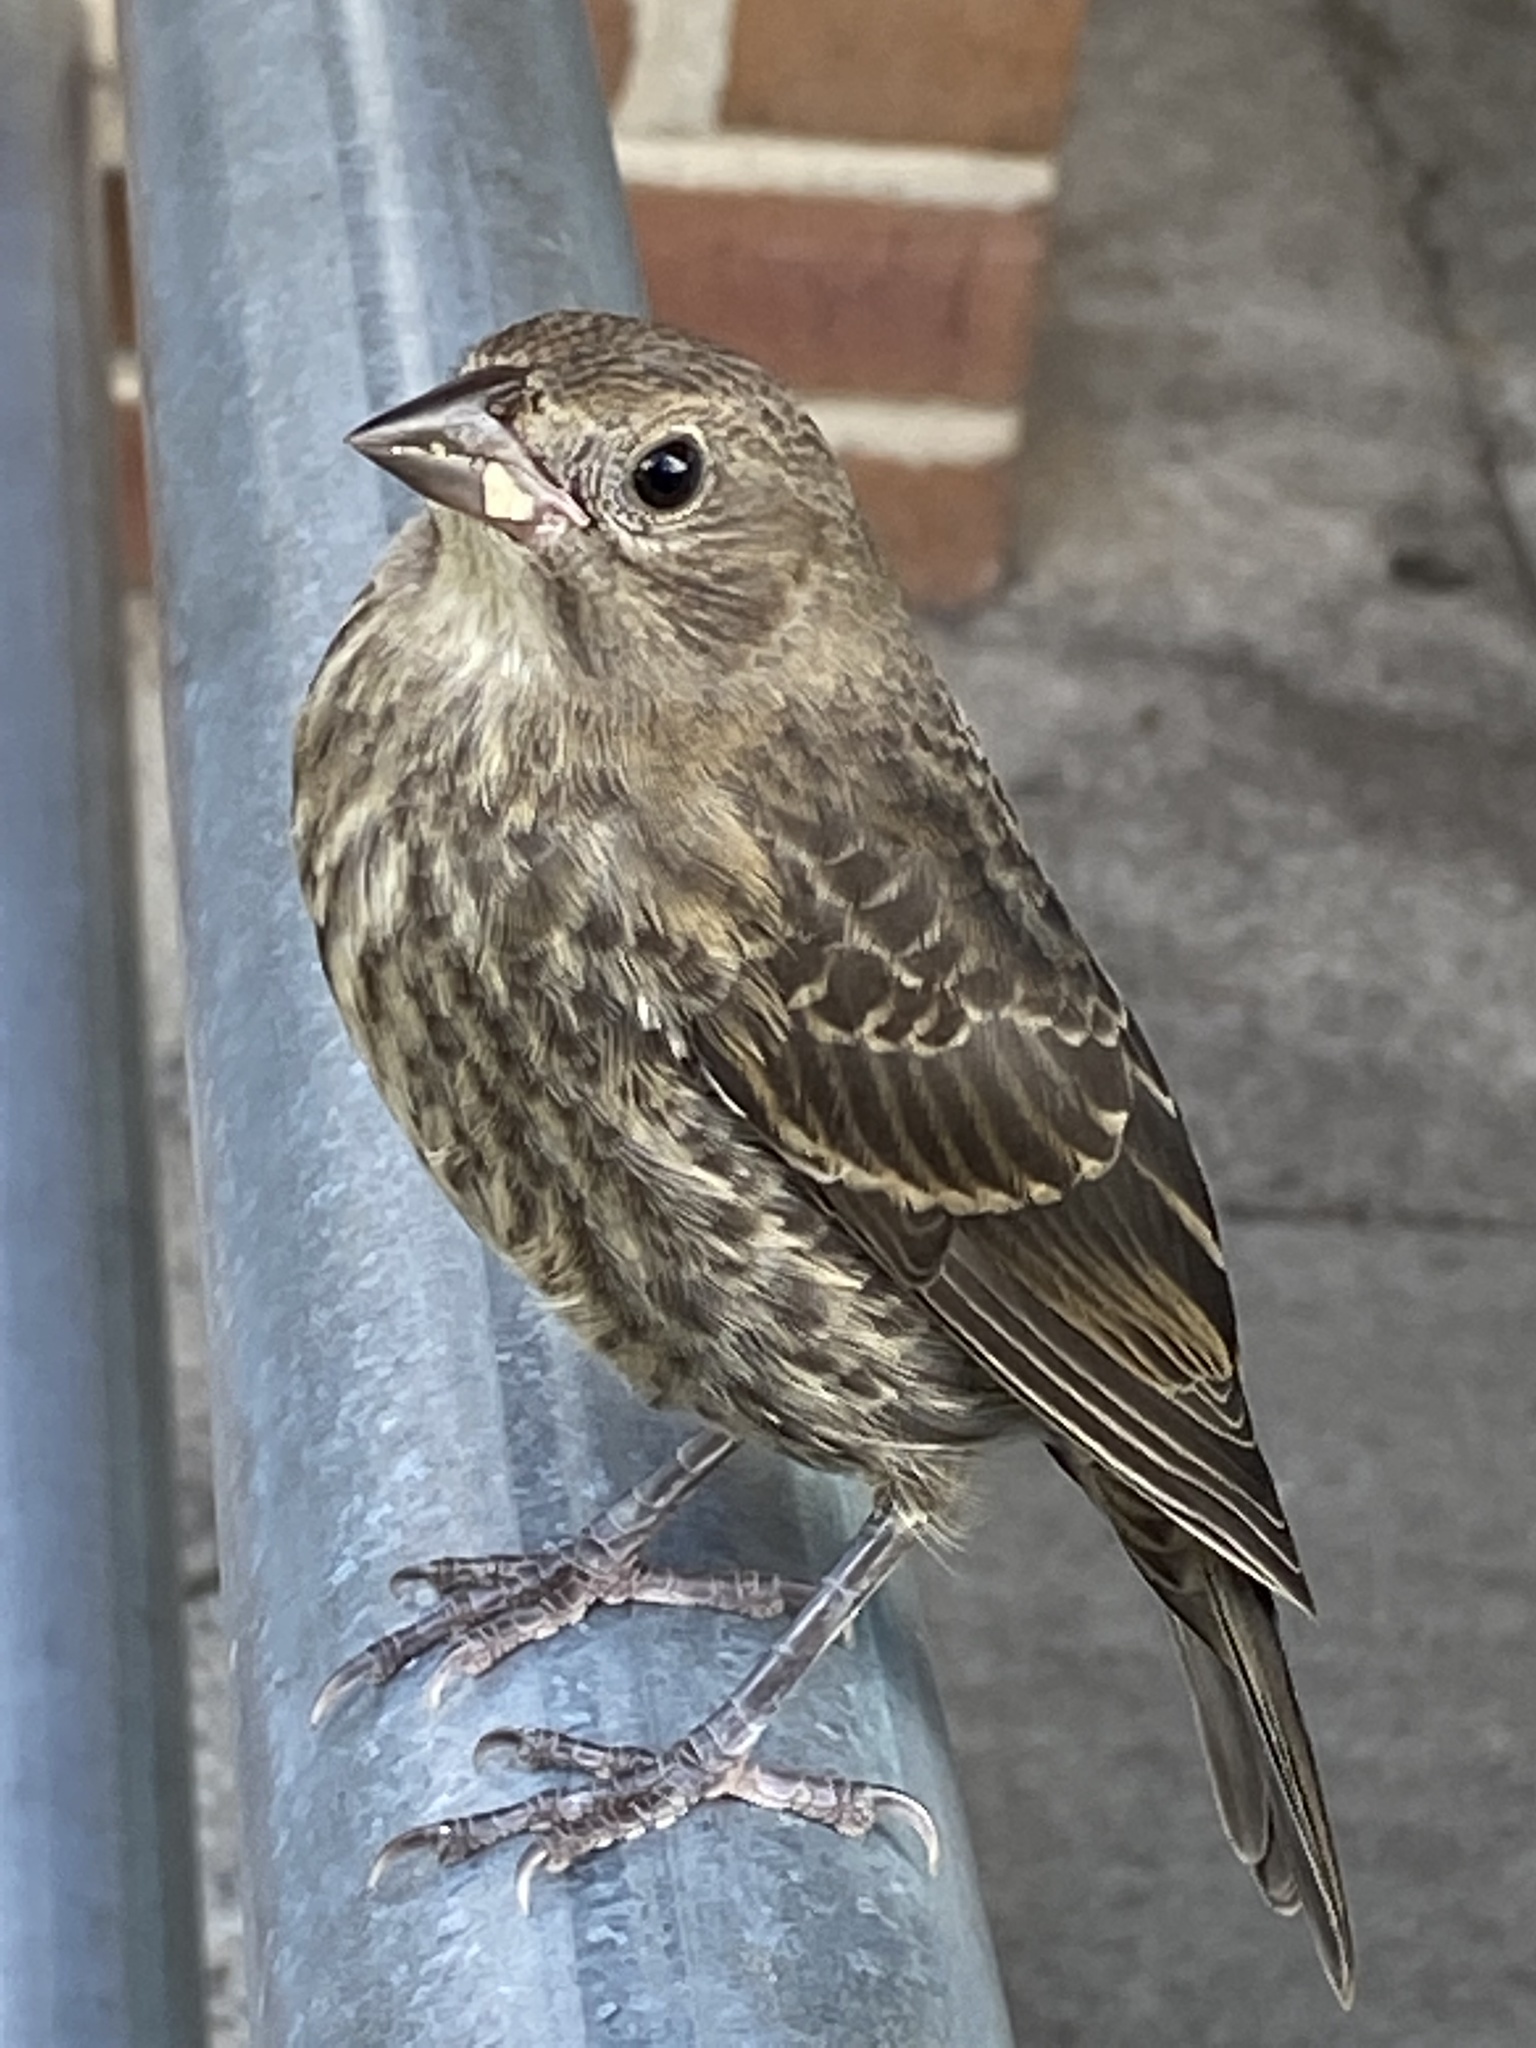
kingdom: Animalia
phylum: Chordata
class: Aves
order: Passeriformes
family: Icteridae
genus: Molothrus
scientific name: Molothrus ater
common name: Brown-headed cowbird
